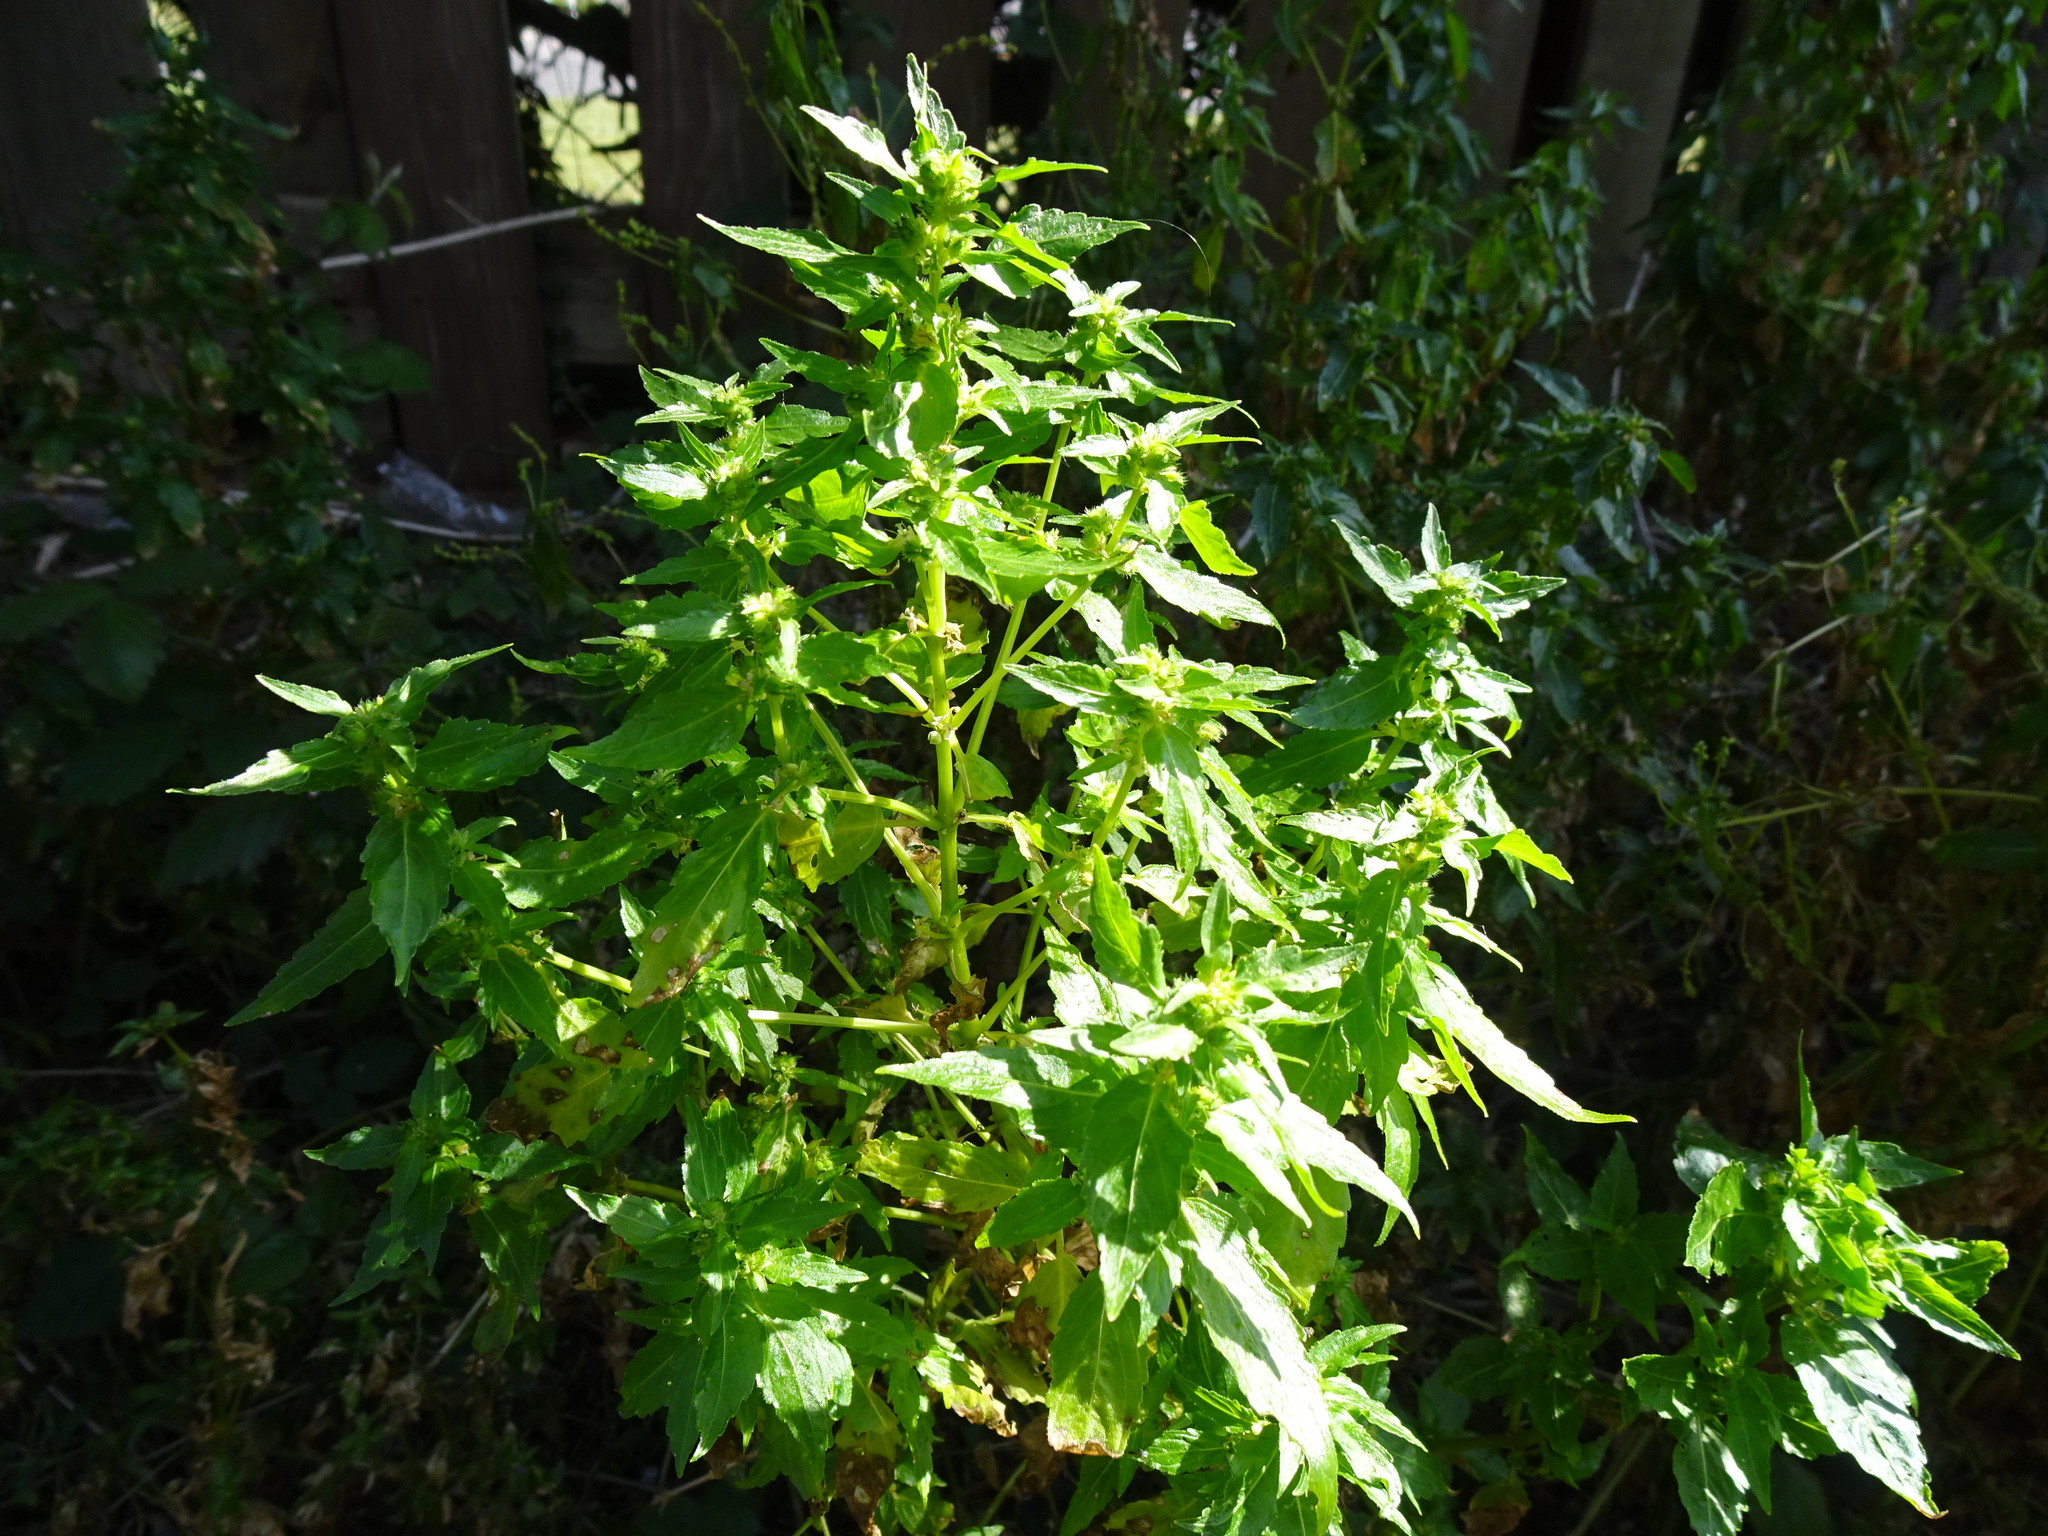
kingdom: Plantae
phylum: Tracheophyta
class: Magnoliopsida
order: Malpighiales
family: Euphorbiaceae
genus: Mercurialis
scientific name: Mercurialis annua
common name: Annual mercury
